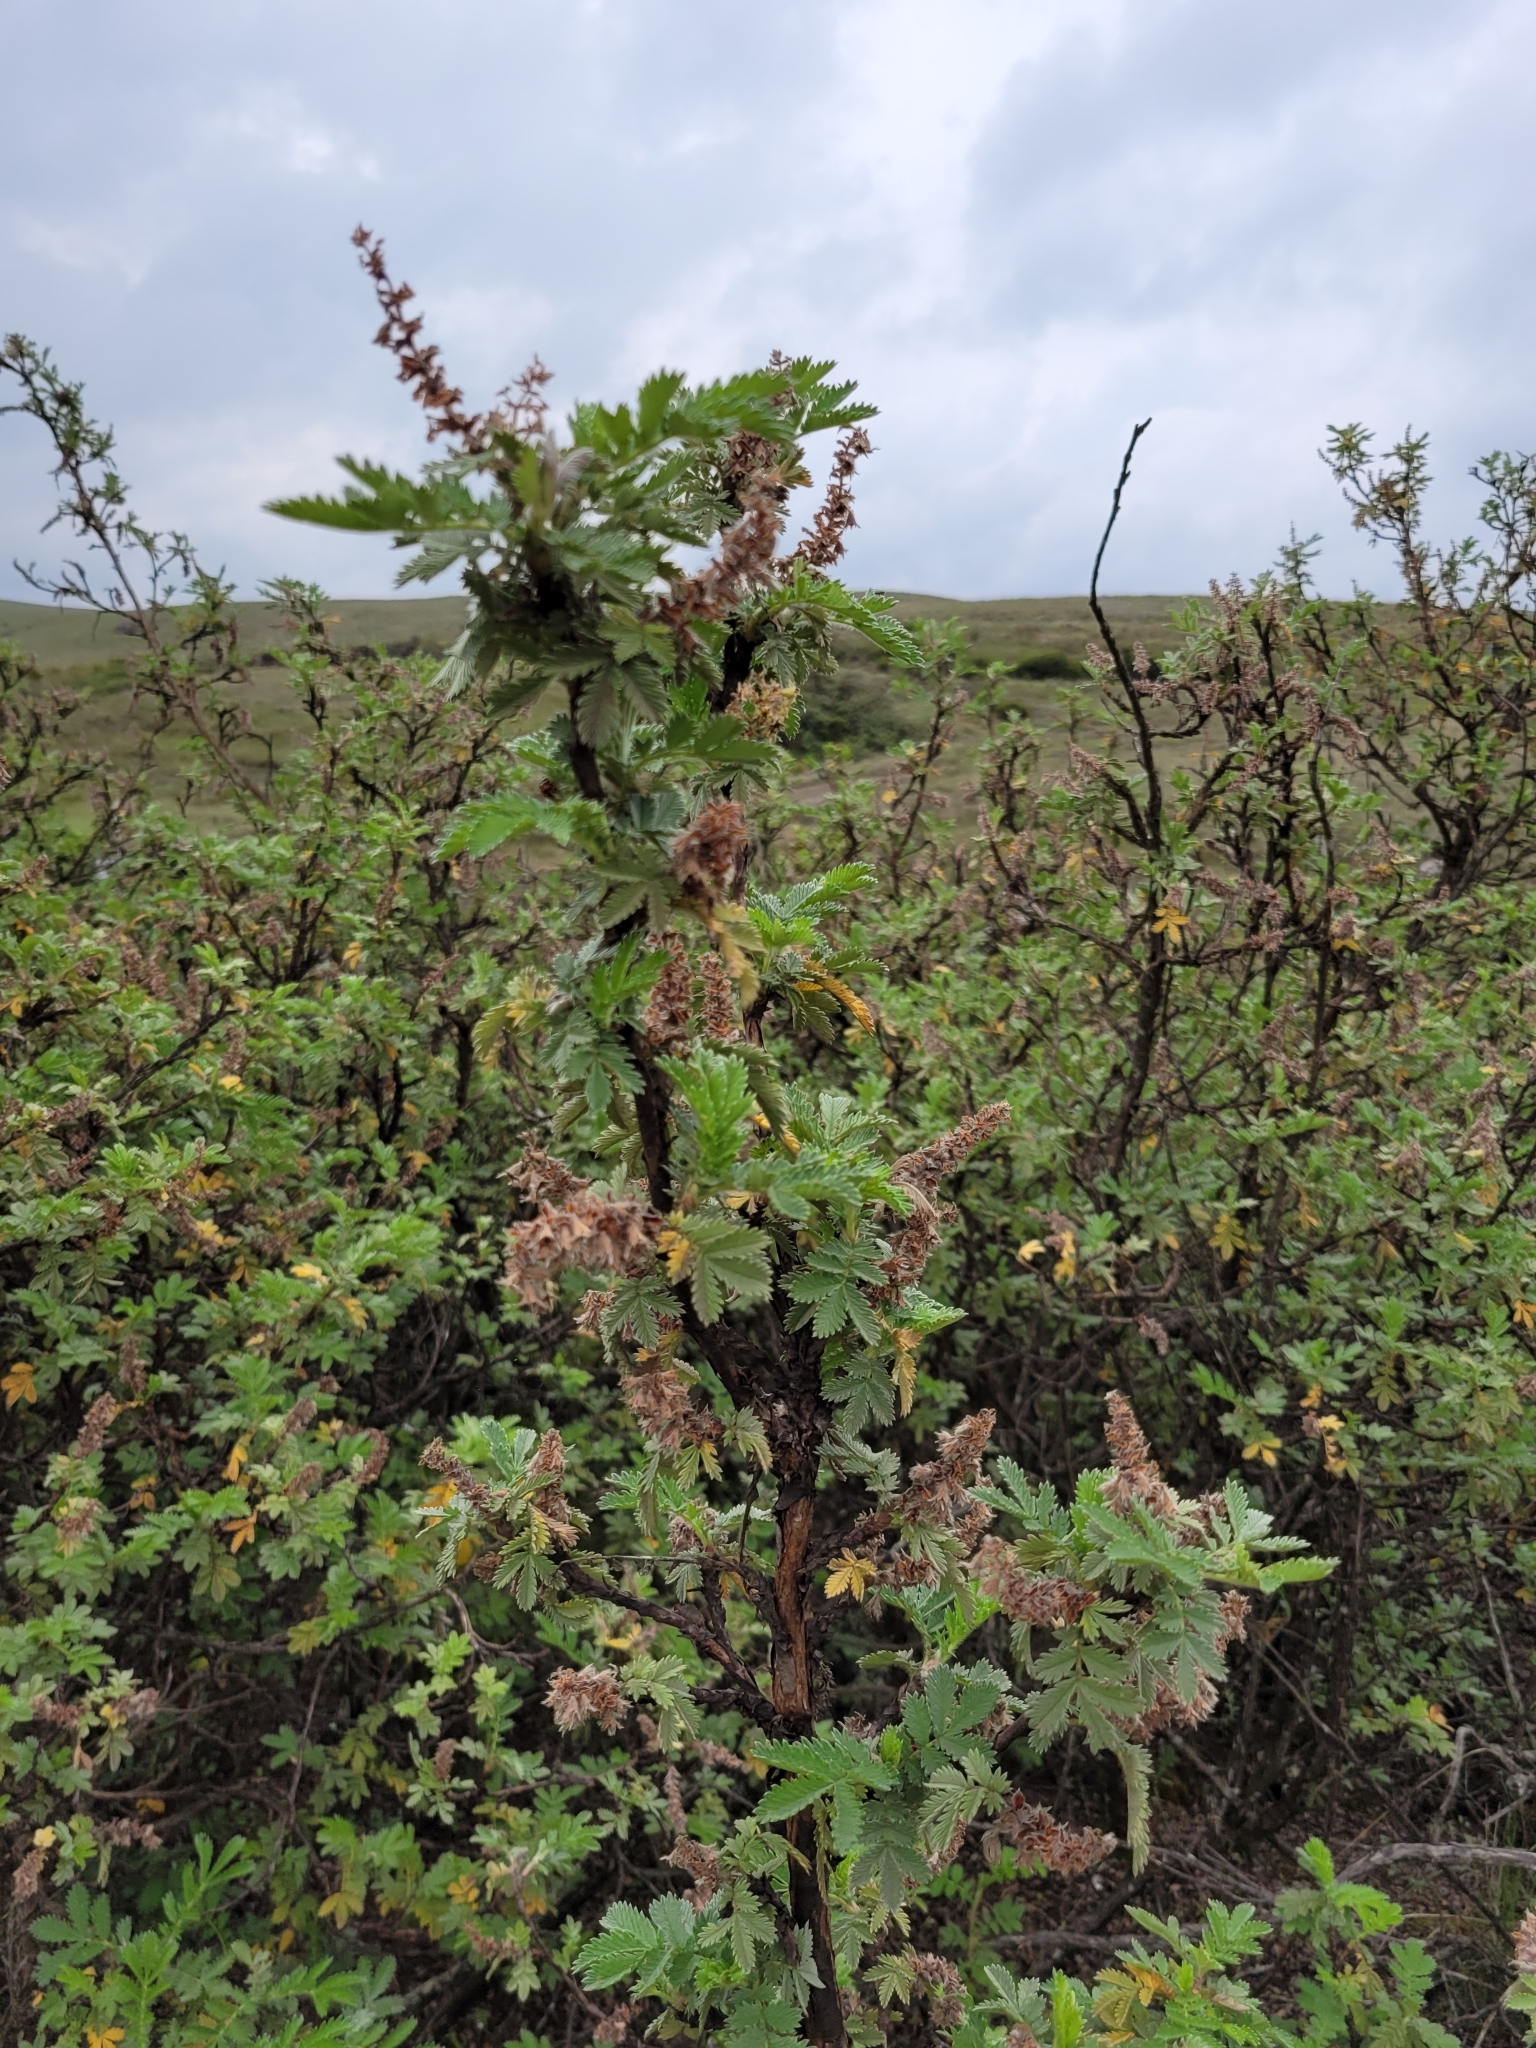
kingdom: Plantae
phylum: Tracheophyta
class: Magnoliopsida
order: Rosales
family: Rosaceae
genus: Leucosidea
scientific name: Leucosidea sericea
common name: Oldwood
